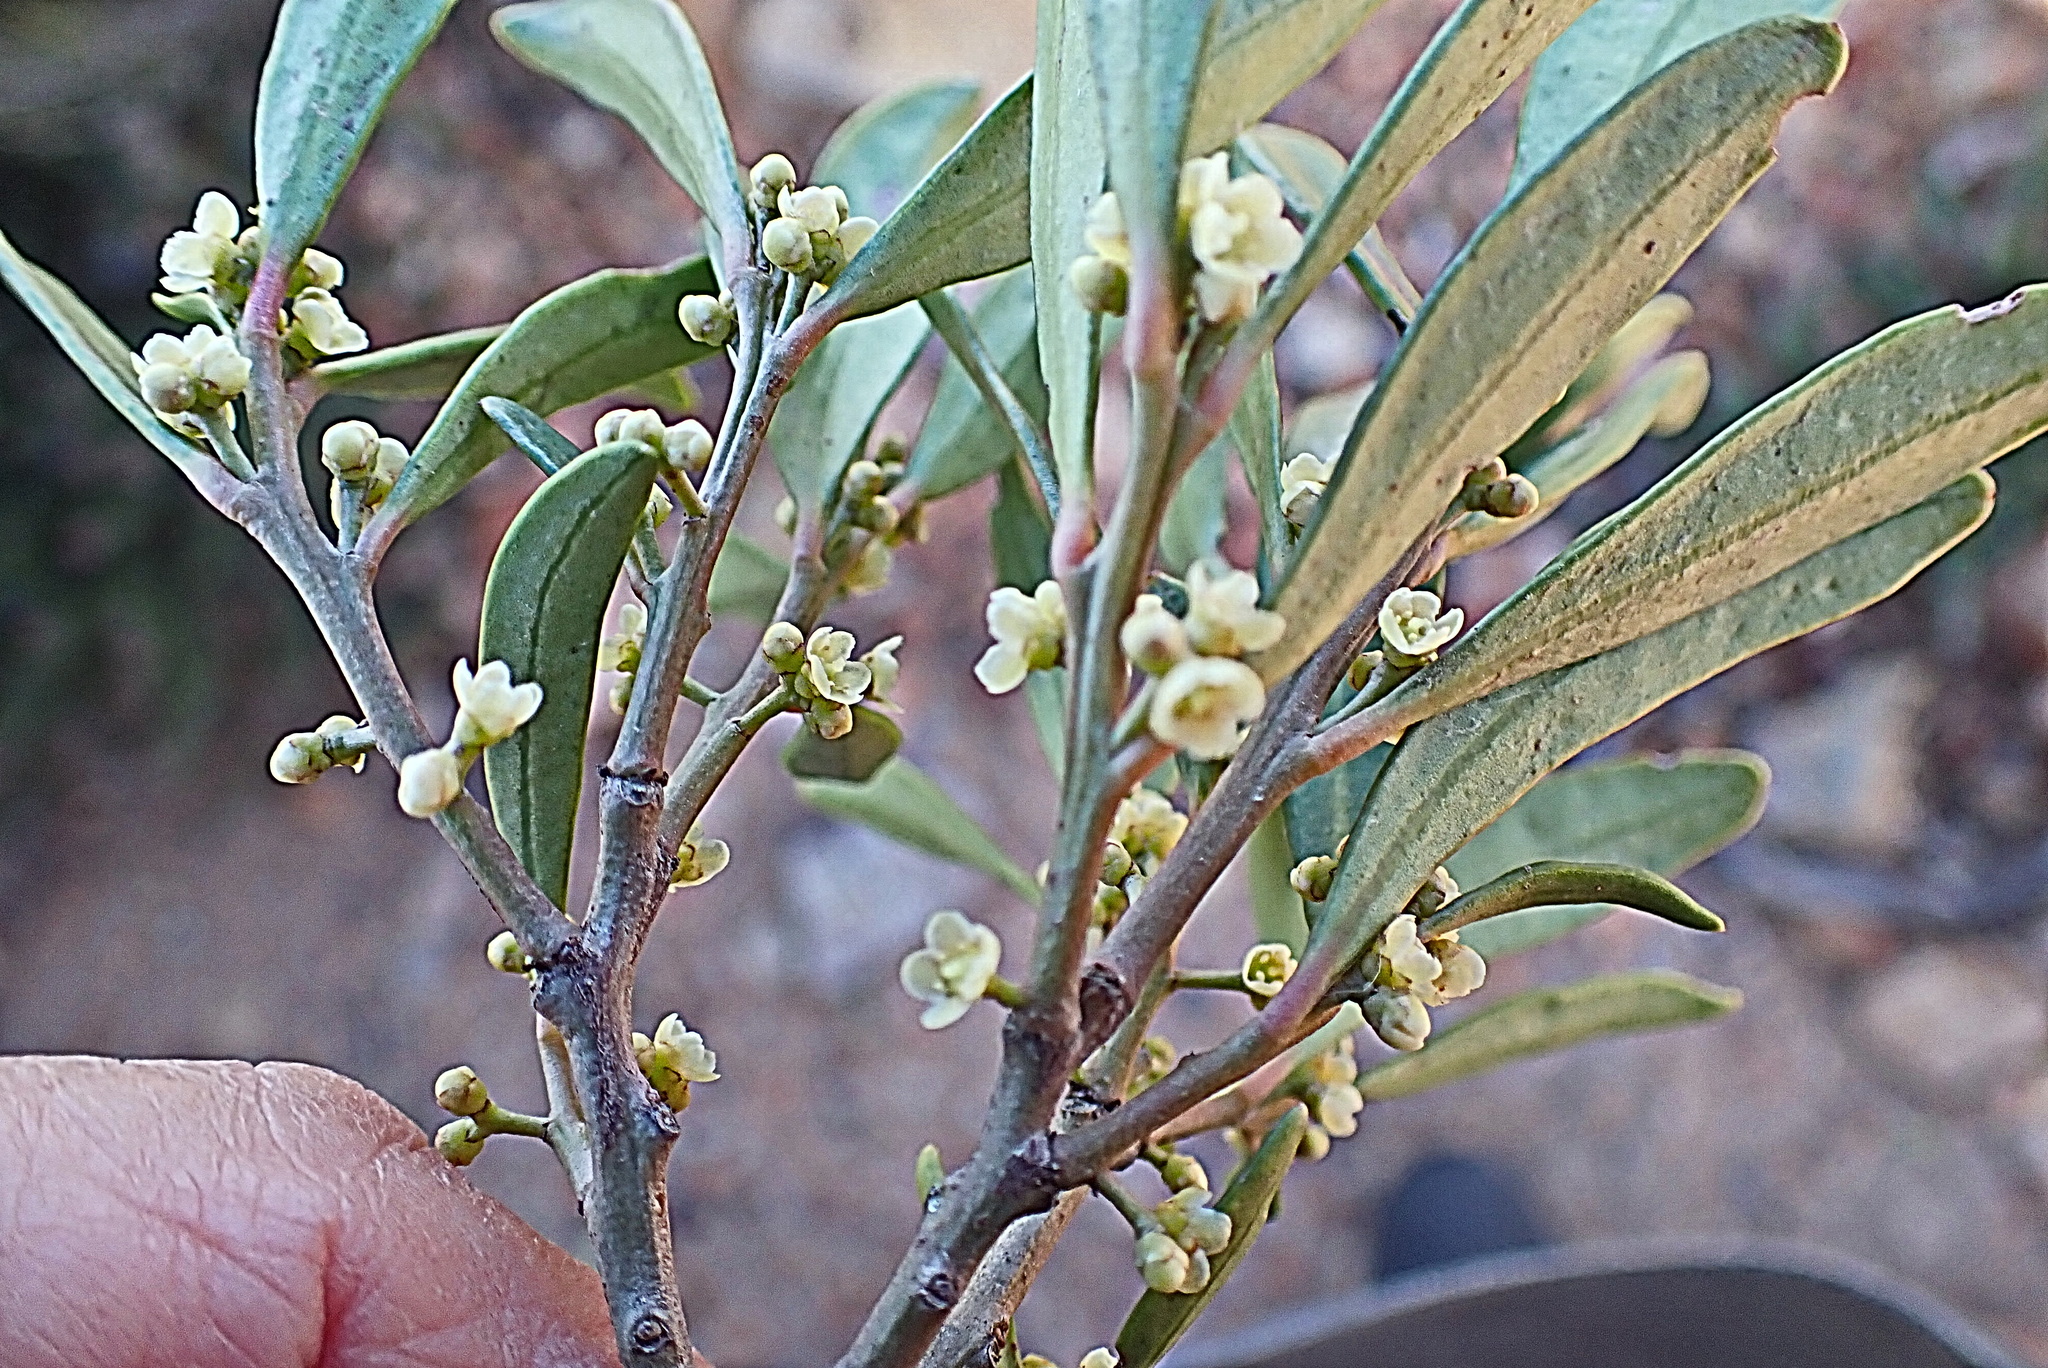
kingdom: Plantae
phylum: Tracheophyta
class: Magnoliopsida
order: Celastrales
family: Celastraceae
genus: Gymnosporia
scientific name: Gymnosporia laurina
